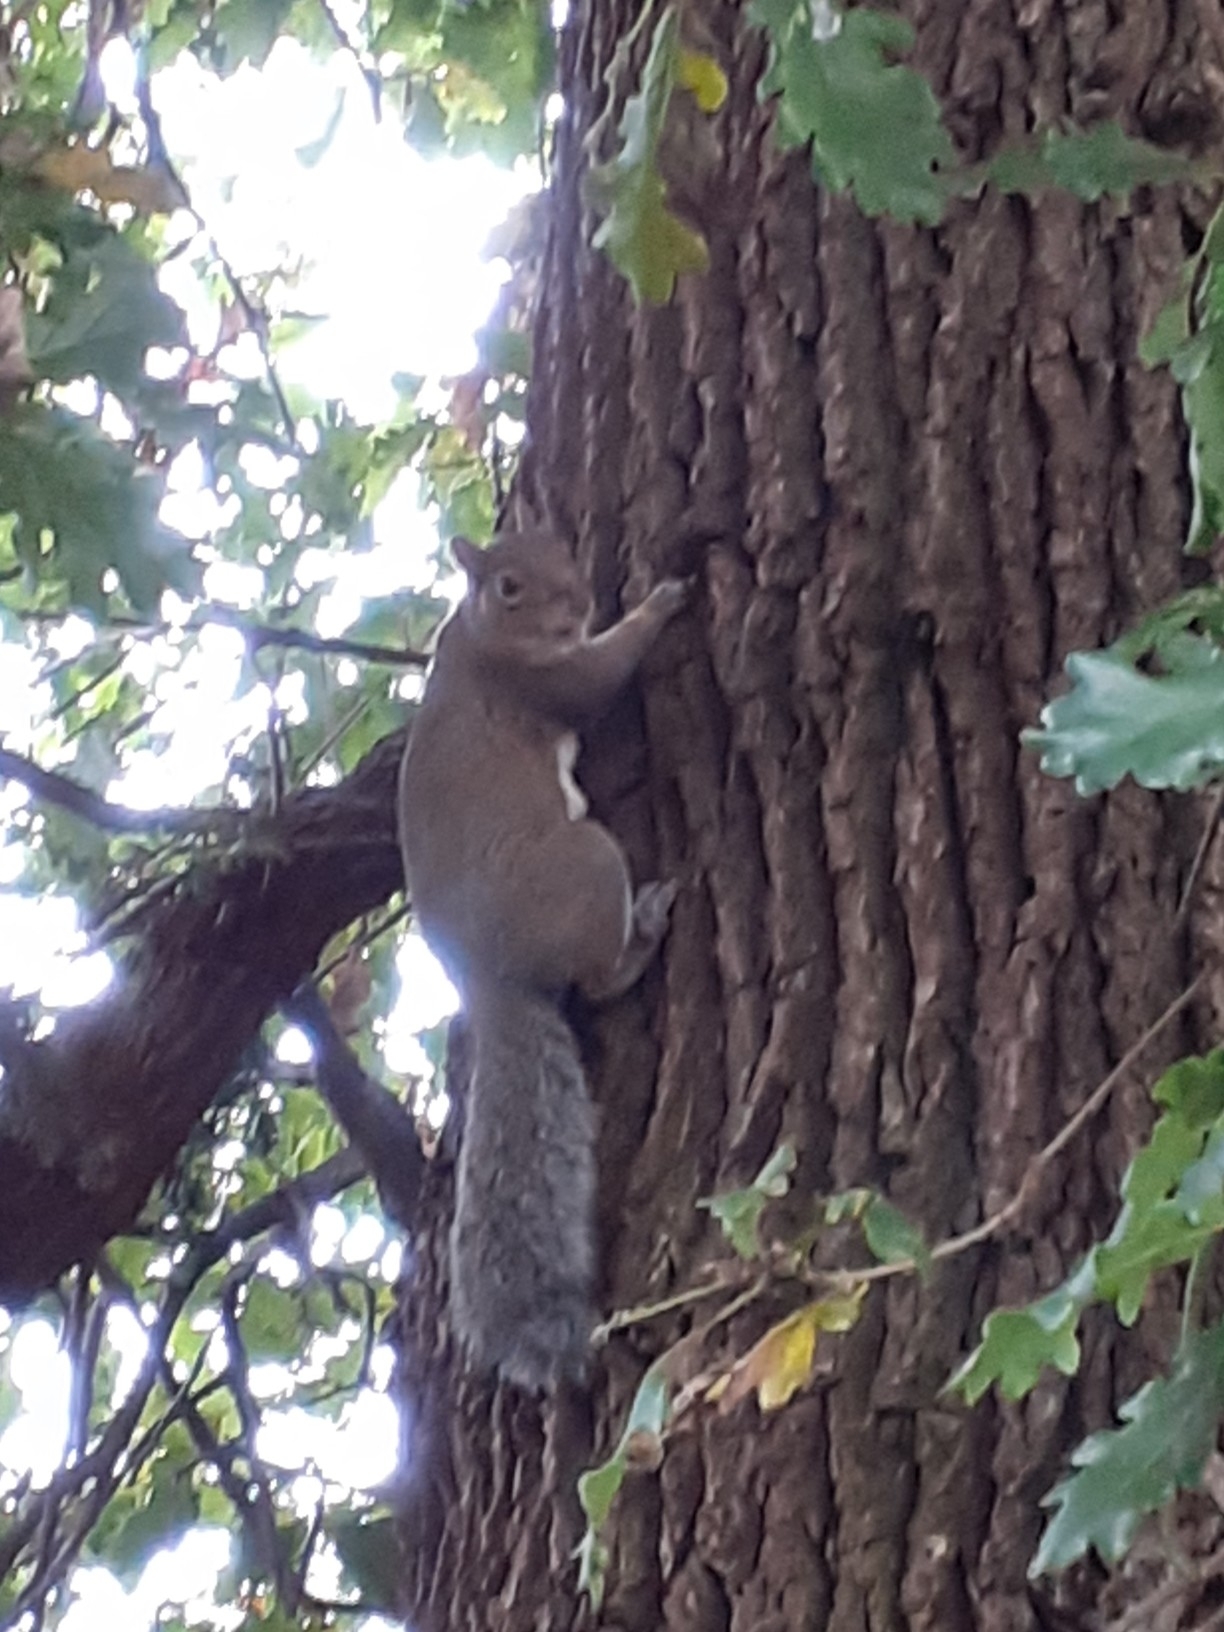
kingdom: Animalia
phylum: Chordata
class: Mammalia
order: Rodentia
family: Sciuridae
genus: Sciurus
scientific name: Sciurus carolinensis
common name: Eastern gray squirrel
